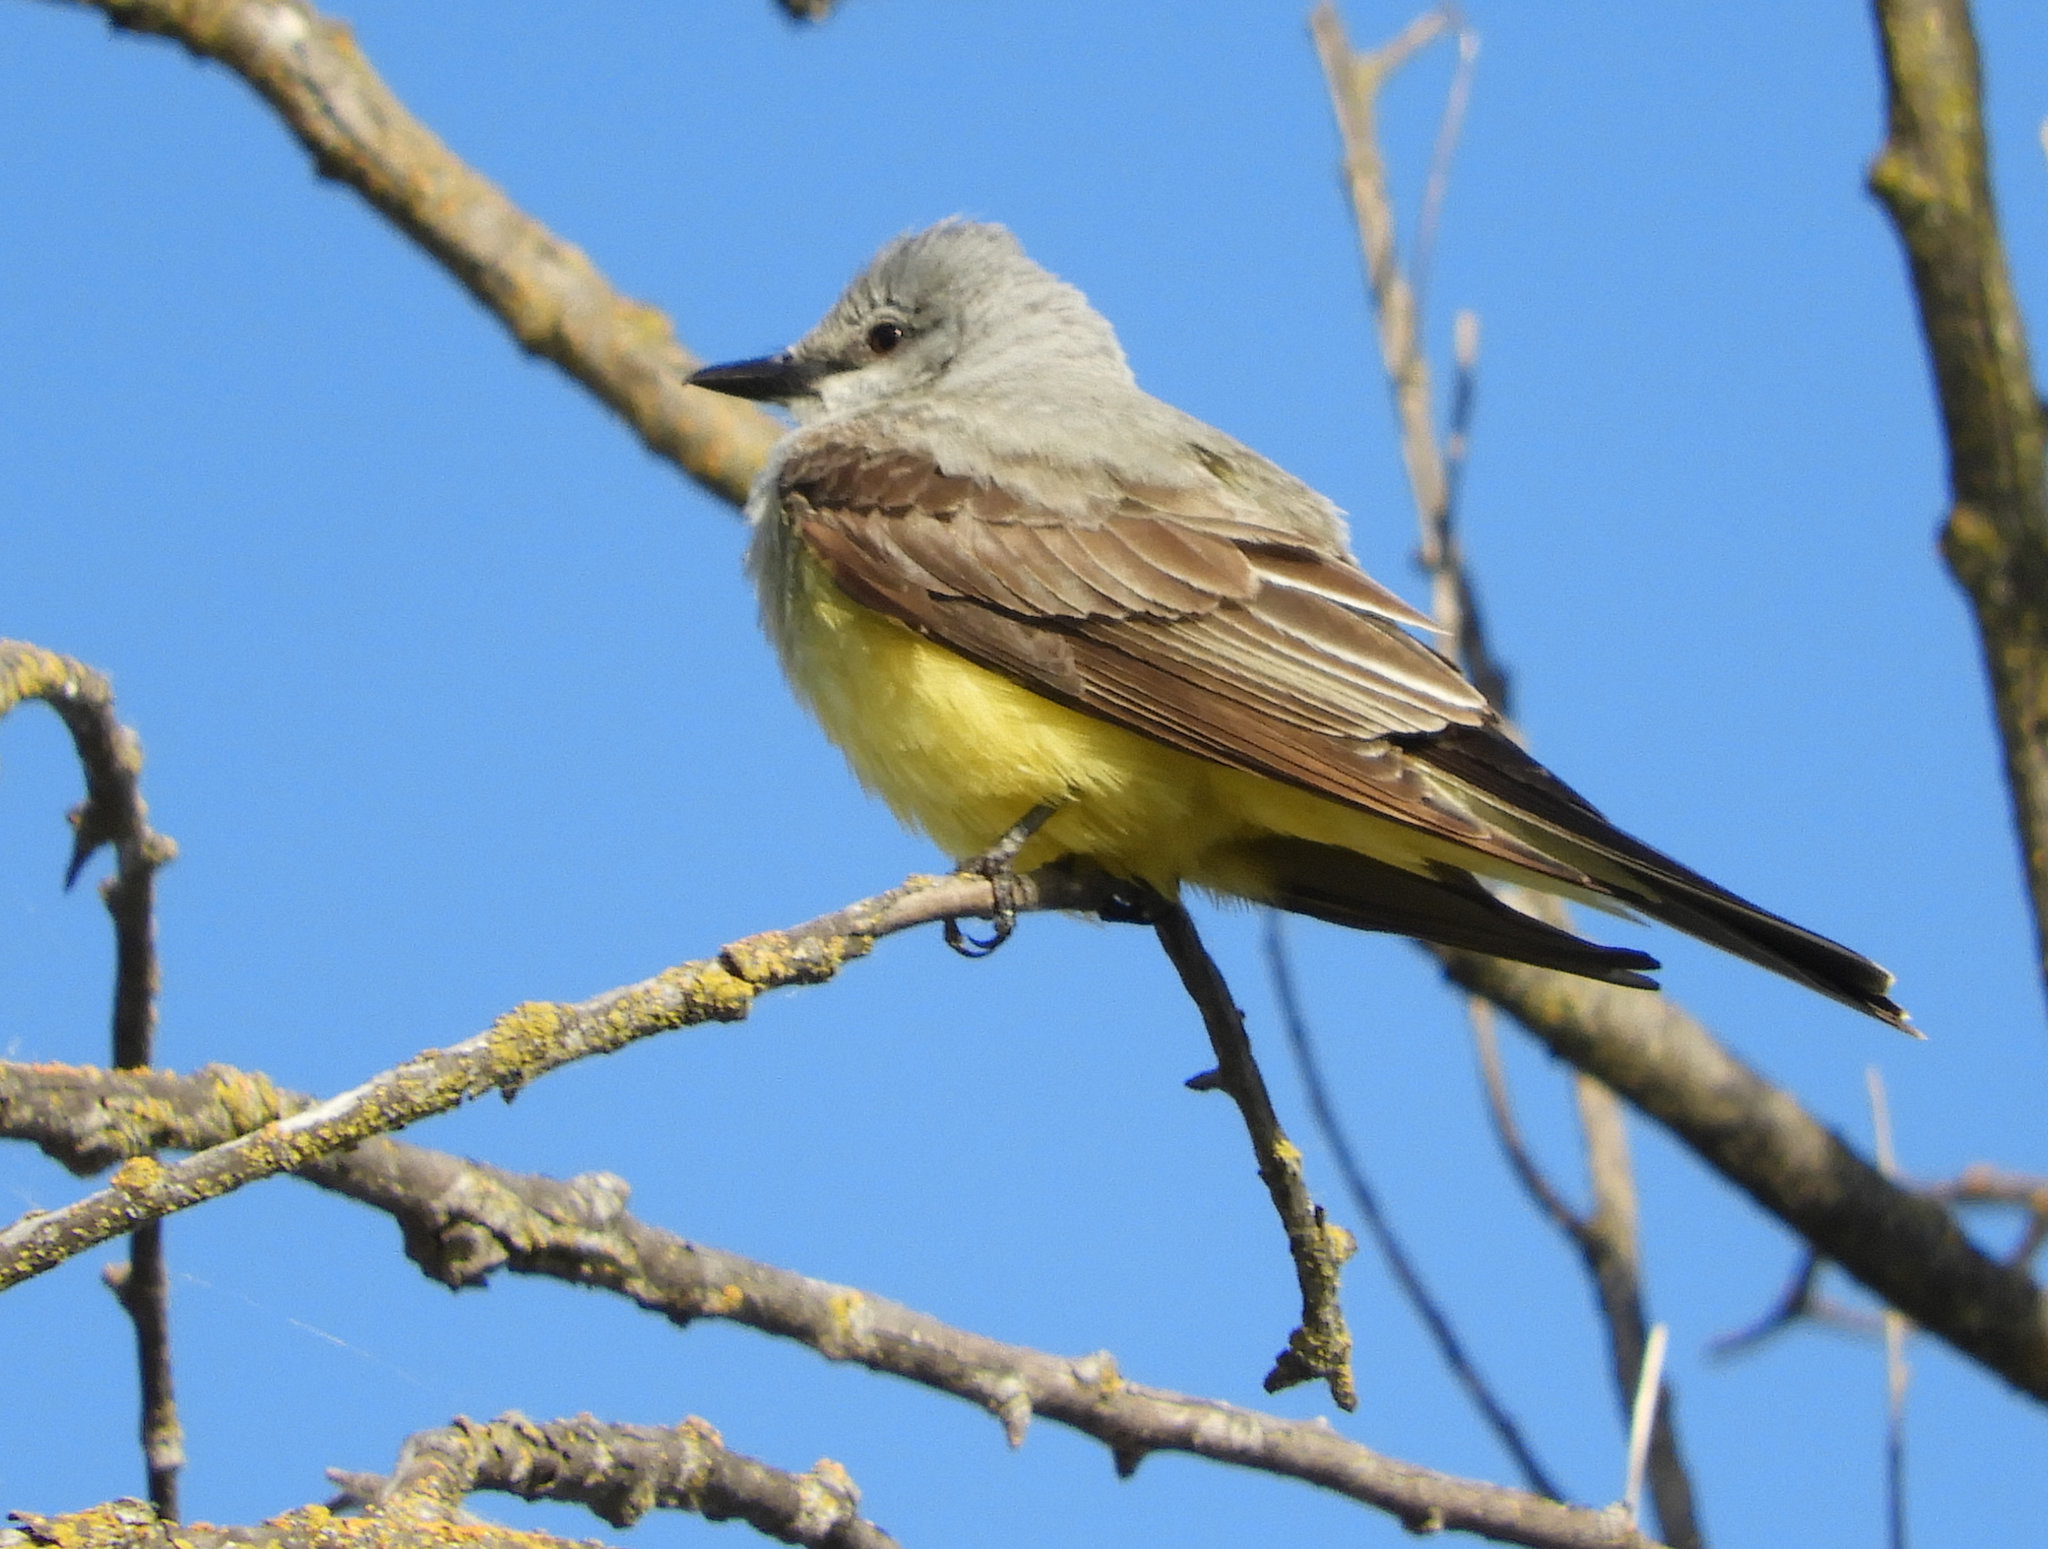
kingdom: Animalia
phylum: Chordata
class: Aves
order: Passeriformes
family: Tyrannidae
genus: Tyrannus
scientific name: Tyrannus verticalis
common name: Western kingbird
